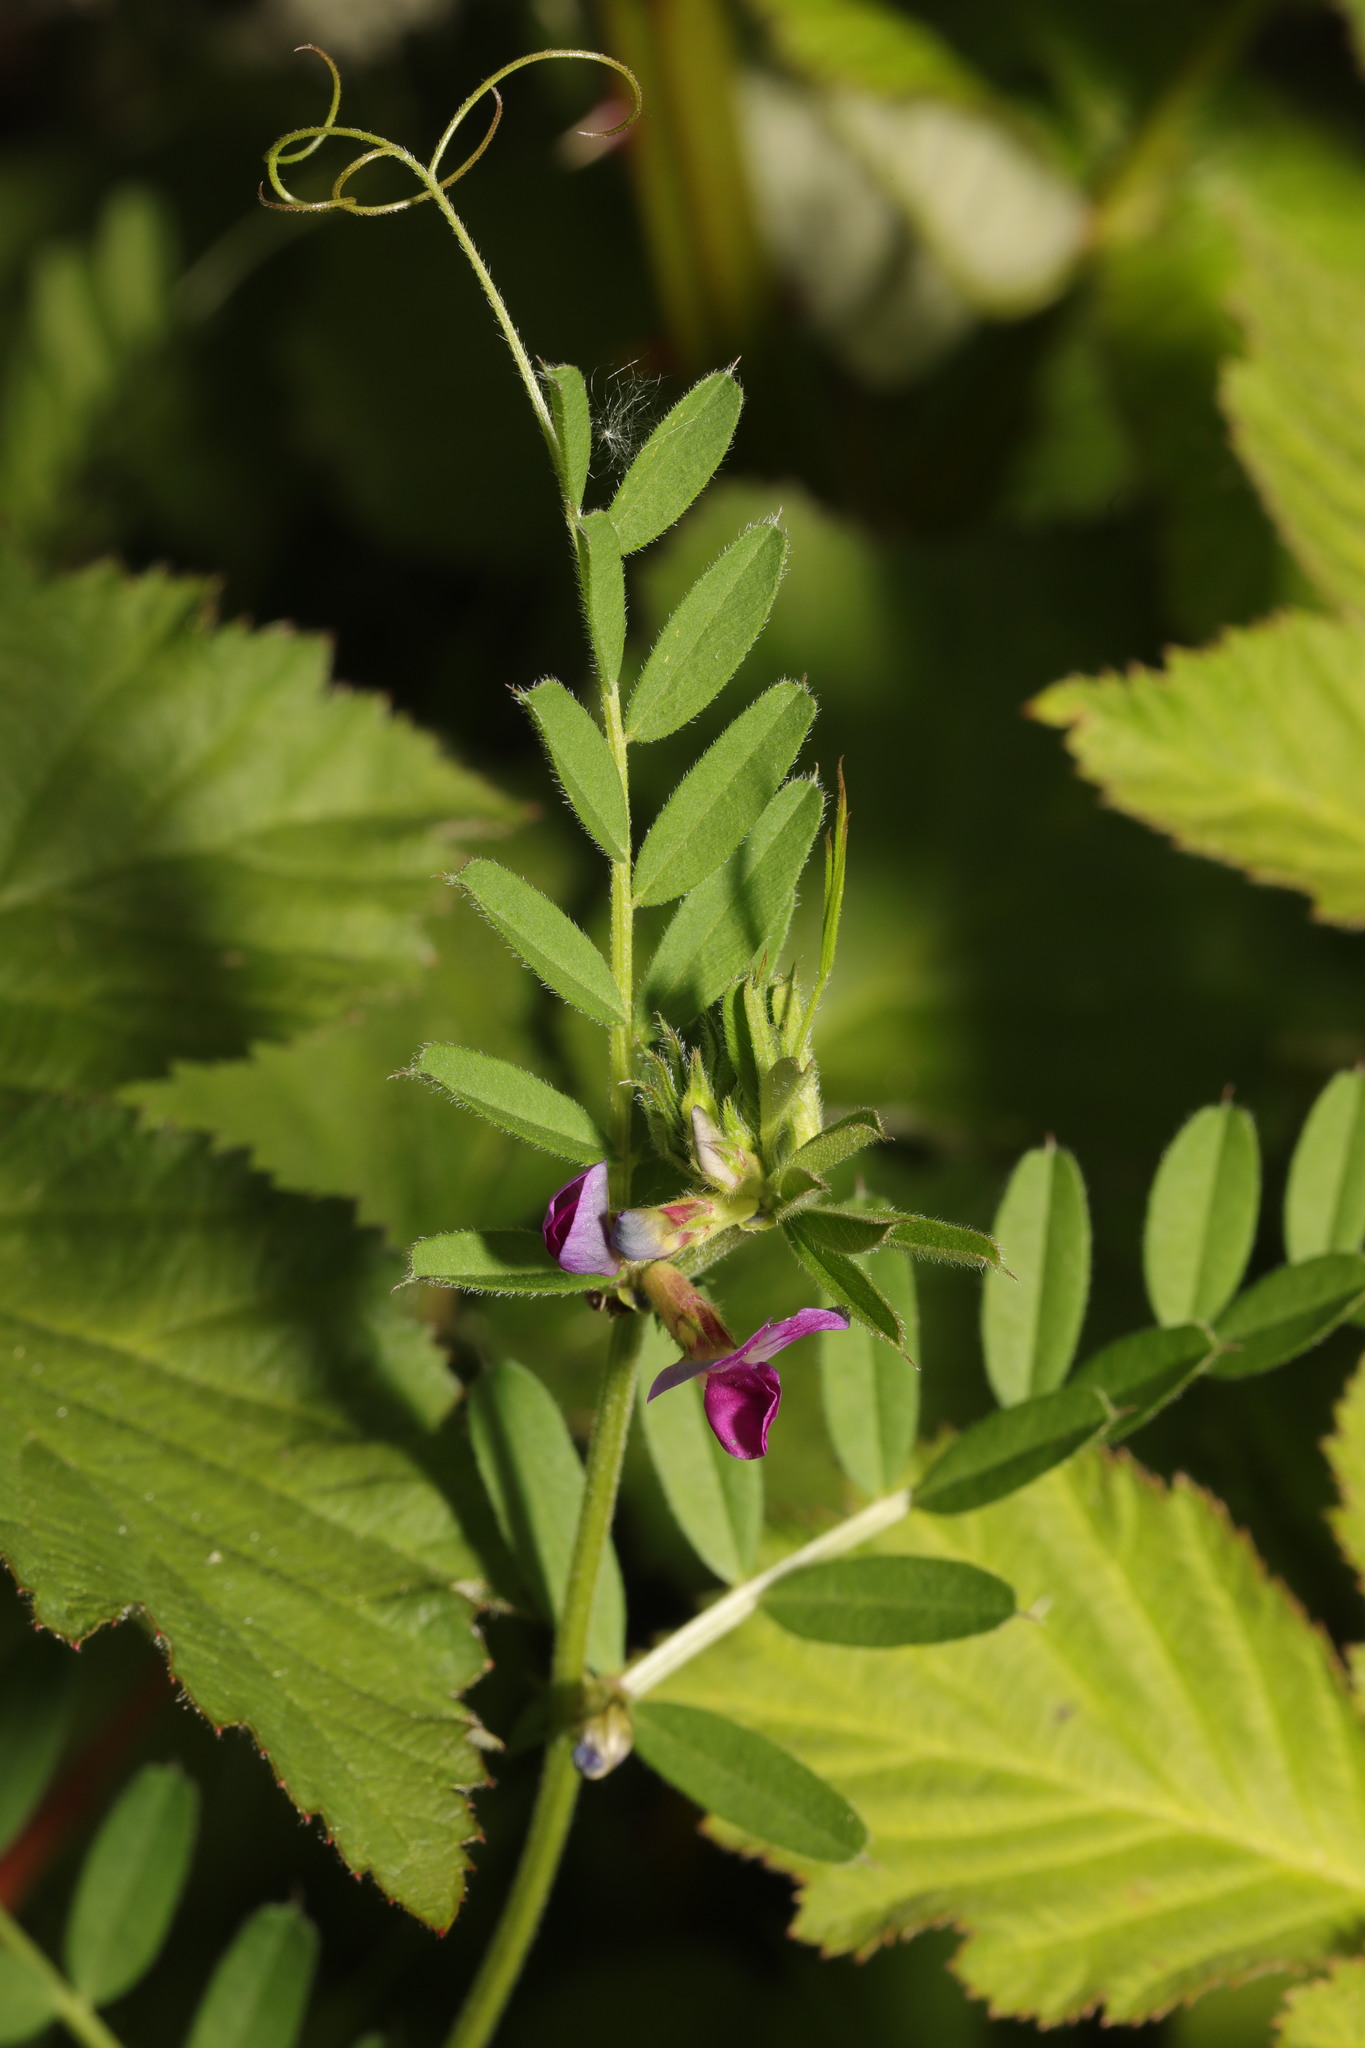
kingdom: Plantae
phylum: Tracheophyta
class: Magnoliopsida
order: Fabales
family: Fabaceae
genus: Vicia
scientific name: Vicia sativa
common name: Garden vetch
